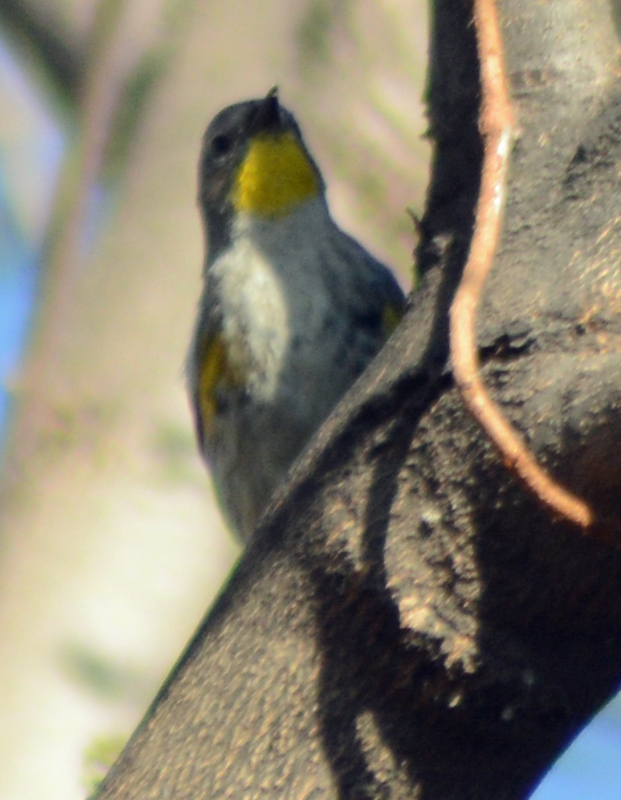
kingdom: Animalia
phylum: Chordata
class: Aves
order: Passeriformes
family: Parulidae
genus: Setophaga
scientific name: Setophaga auduboni
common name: Audubon's warbler
